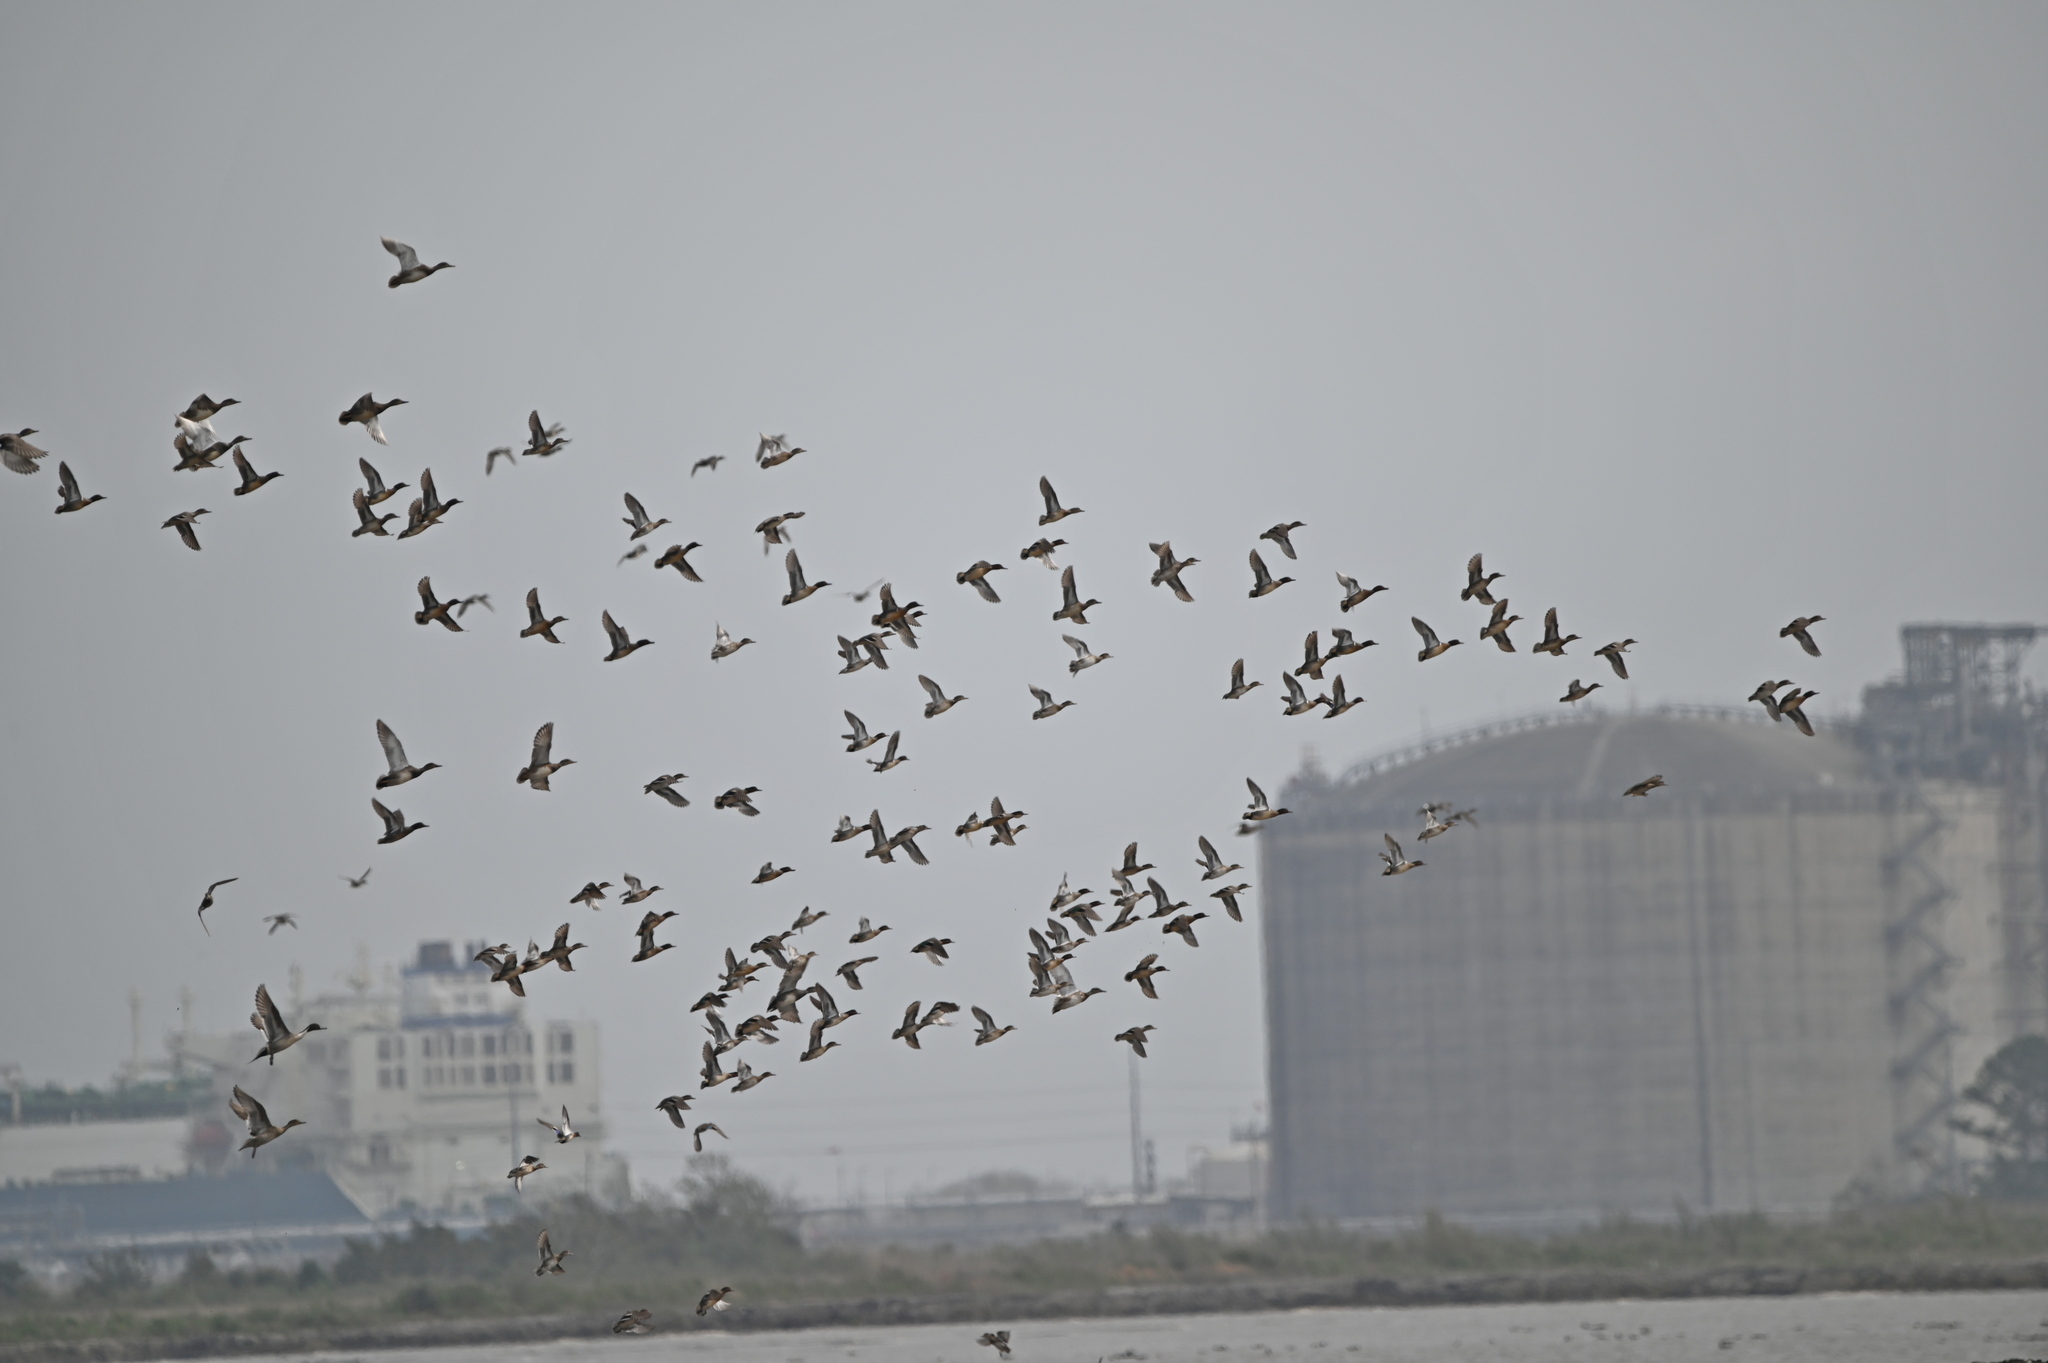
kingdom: Animalia
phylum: Chordata
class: Aves
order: Anseriformes
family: Anatidae
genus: Anas
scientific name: Anas crecca
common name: Eurasian teal
